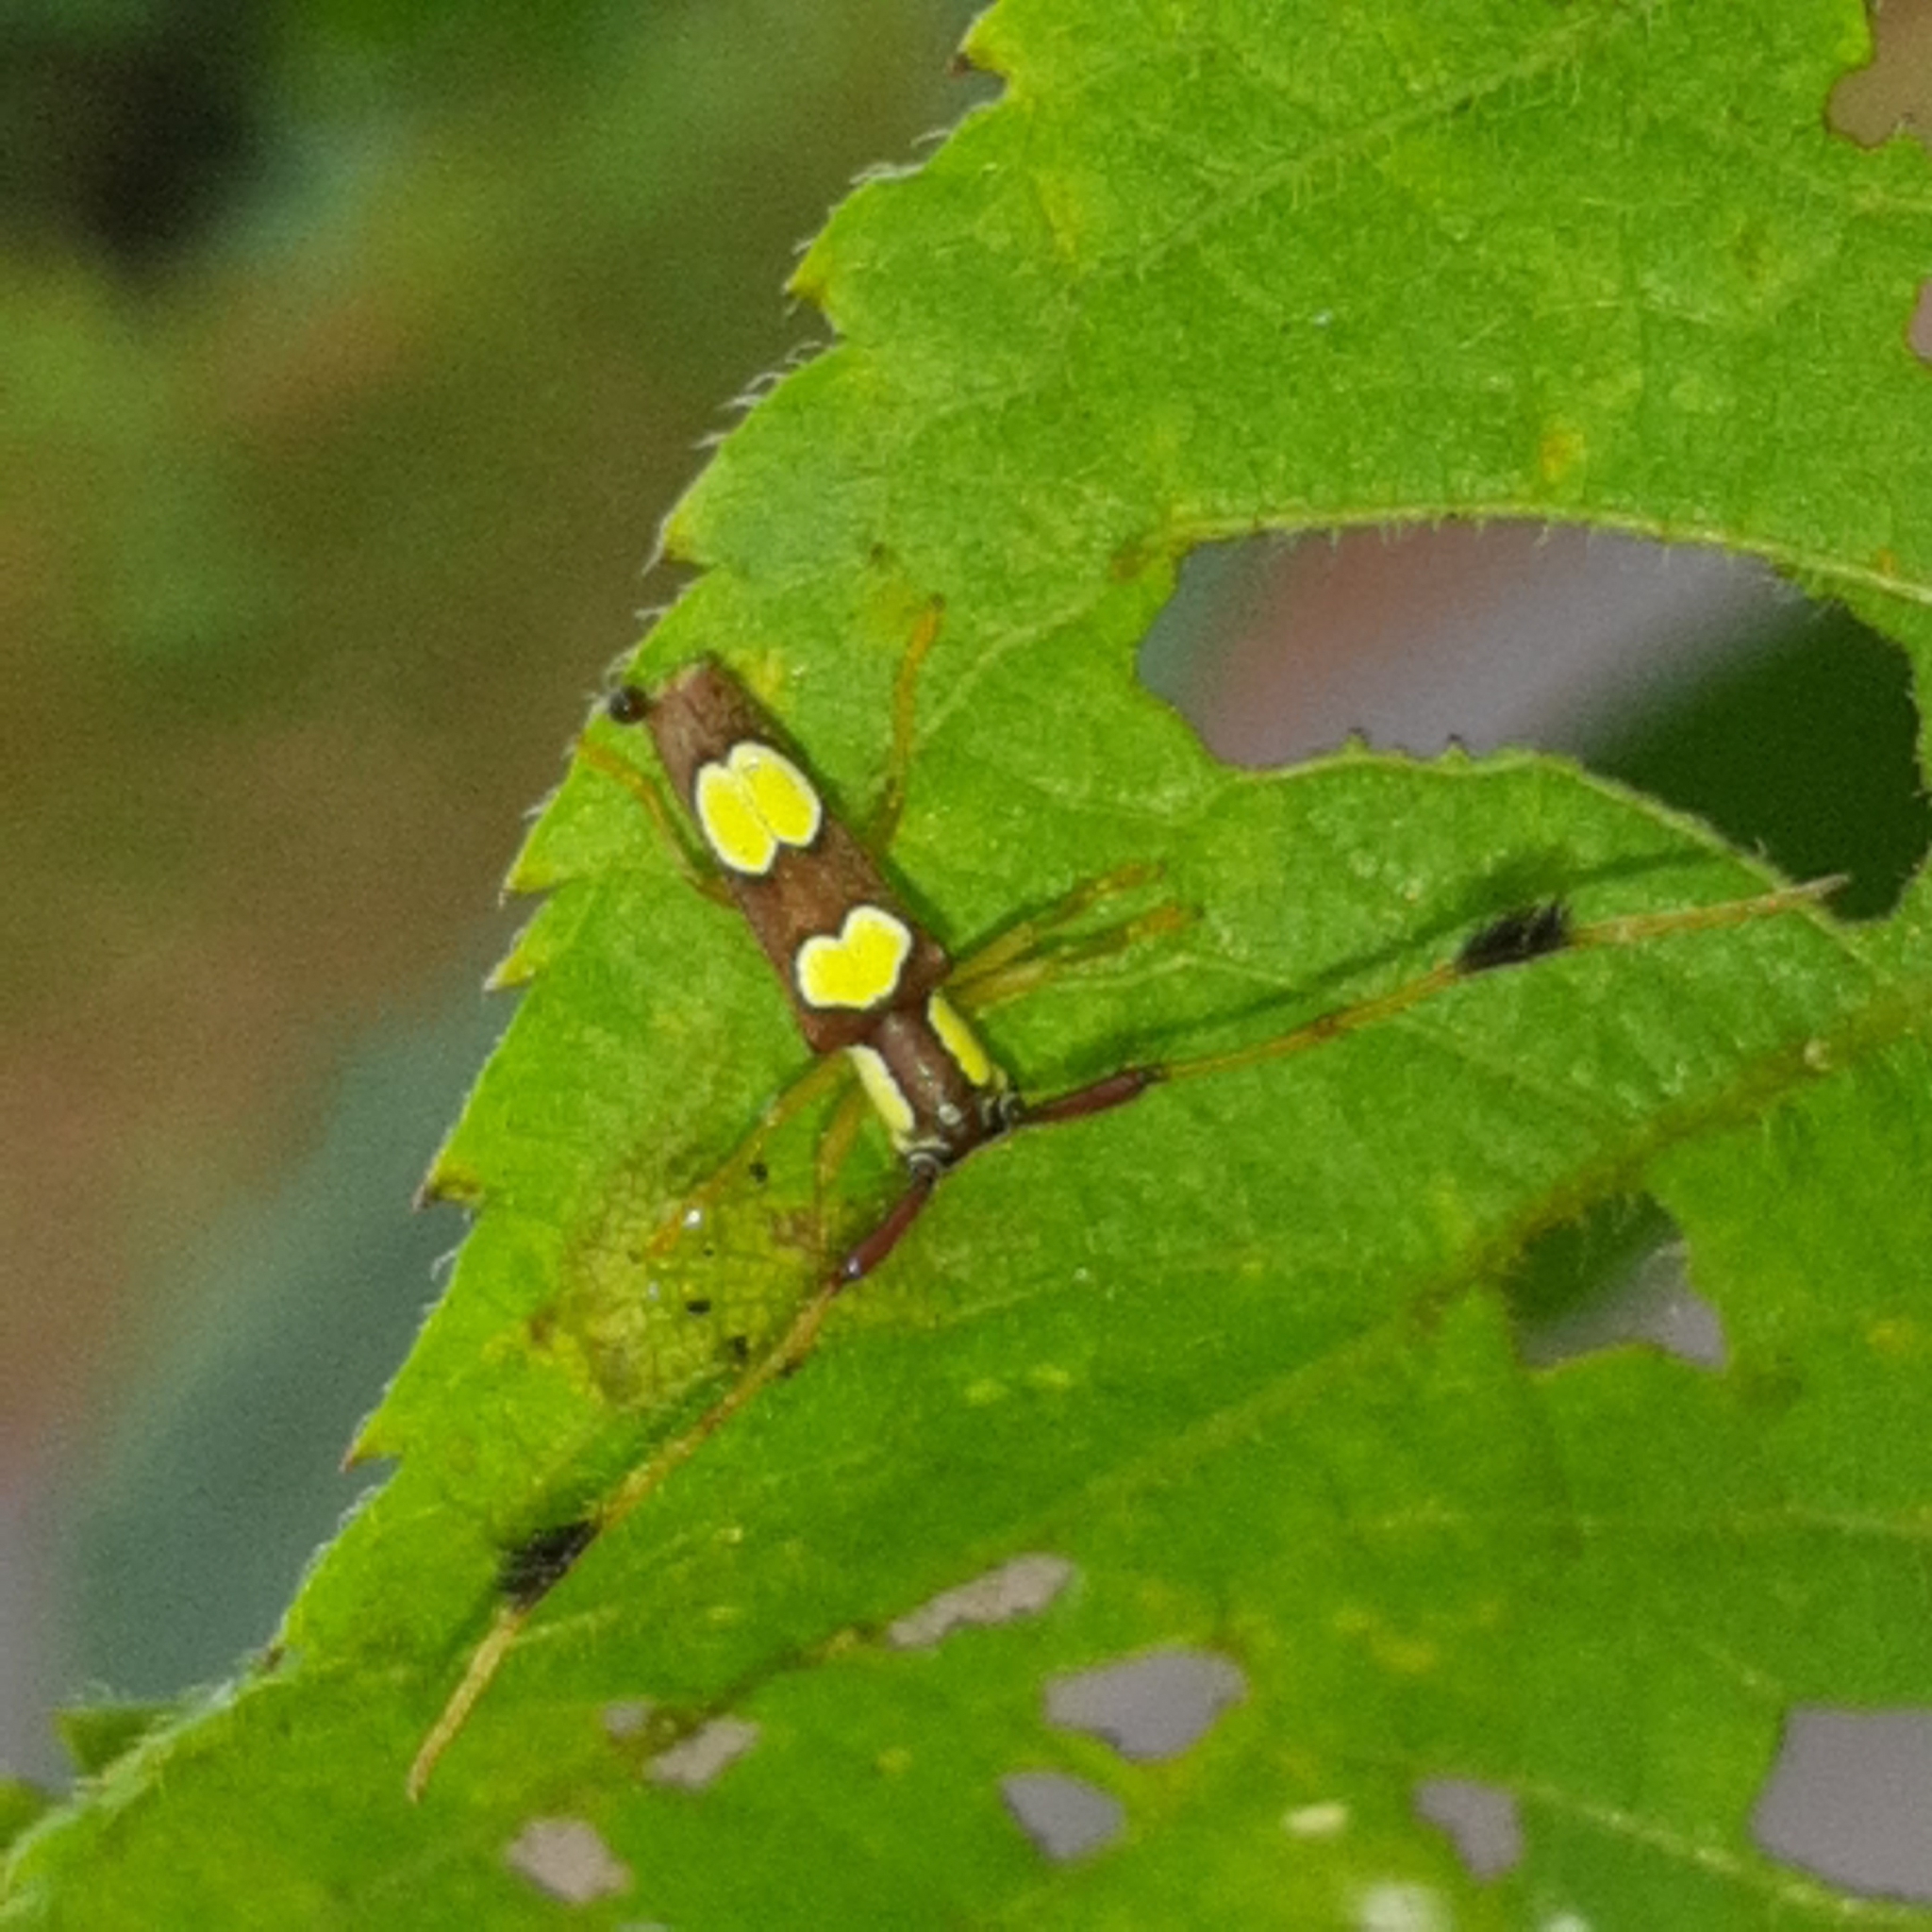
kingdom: Animalia
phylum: Arthropoda
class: Insecta
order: Coleoptera
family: Cerambycidae
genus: Cirrhicera
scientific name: Cirrhicera sallei
